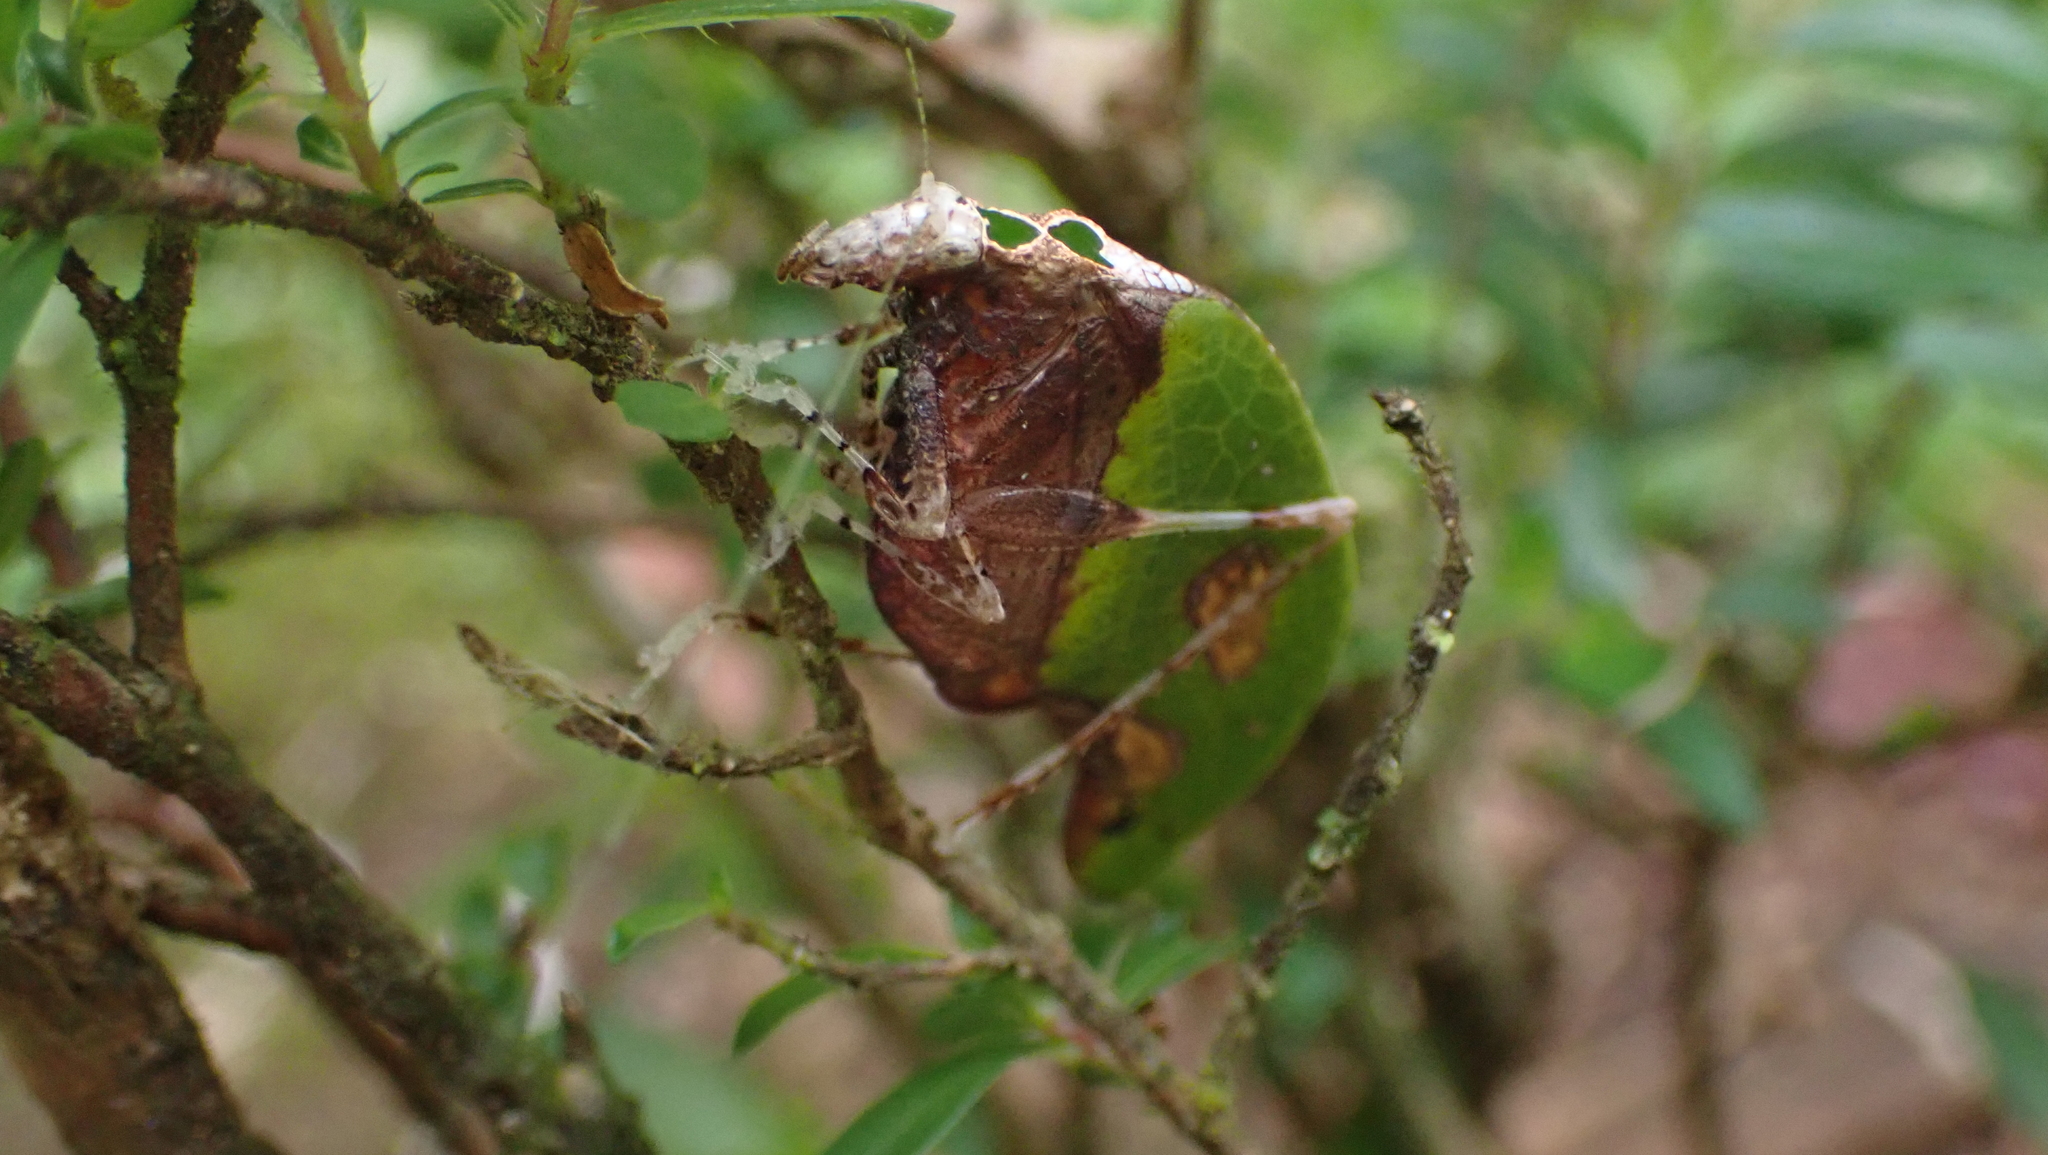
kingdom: Animalia
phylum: Arthropoda
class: Insecta
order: Orthoptera
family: Tettigoniidae
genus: Pycnopalpa
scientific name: Pycnopalpa bicordata
